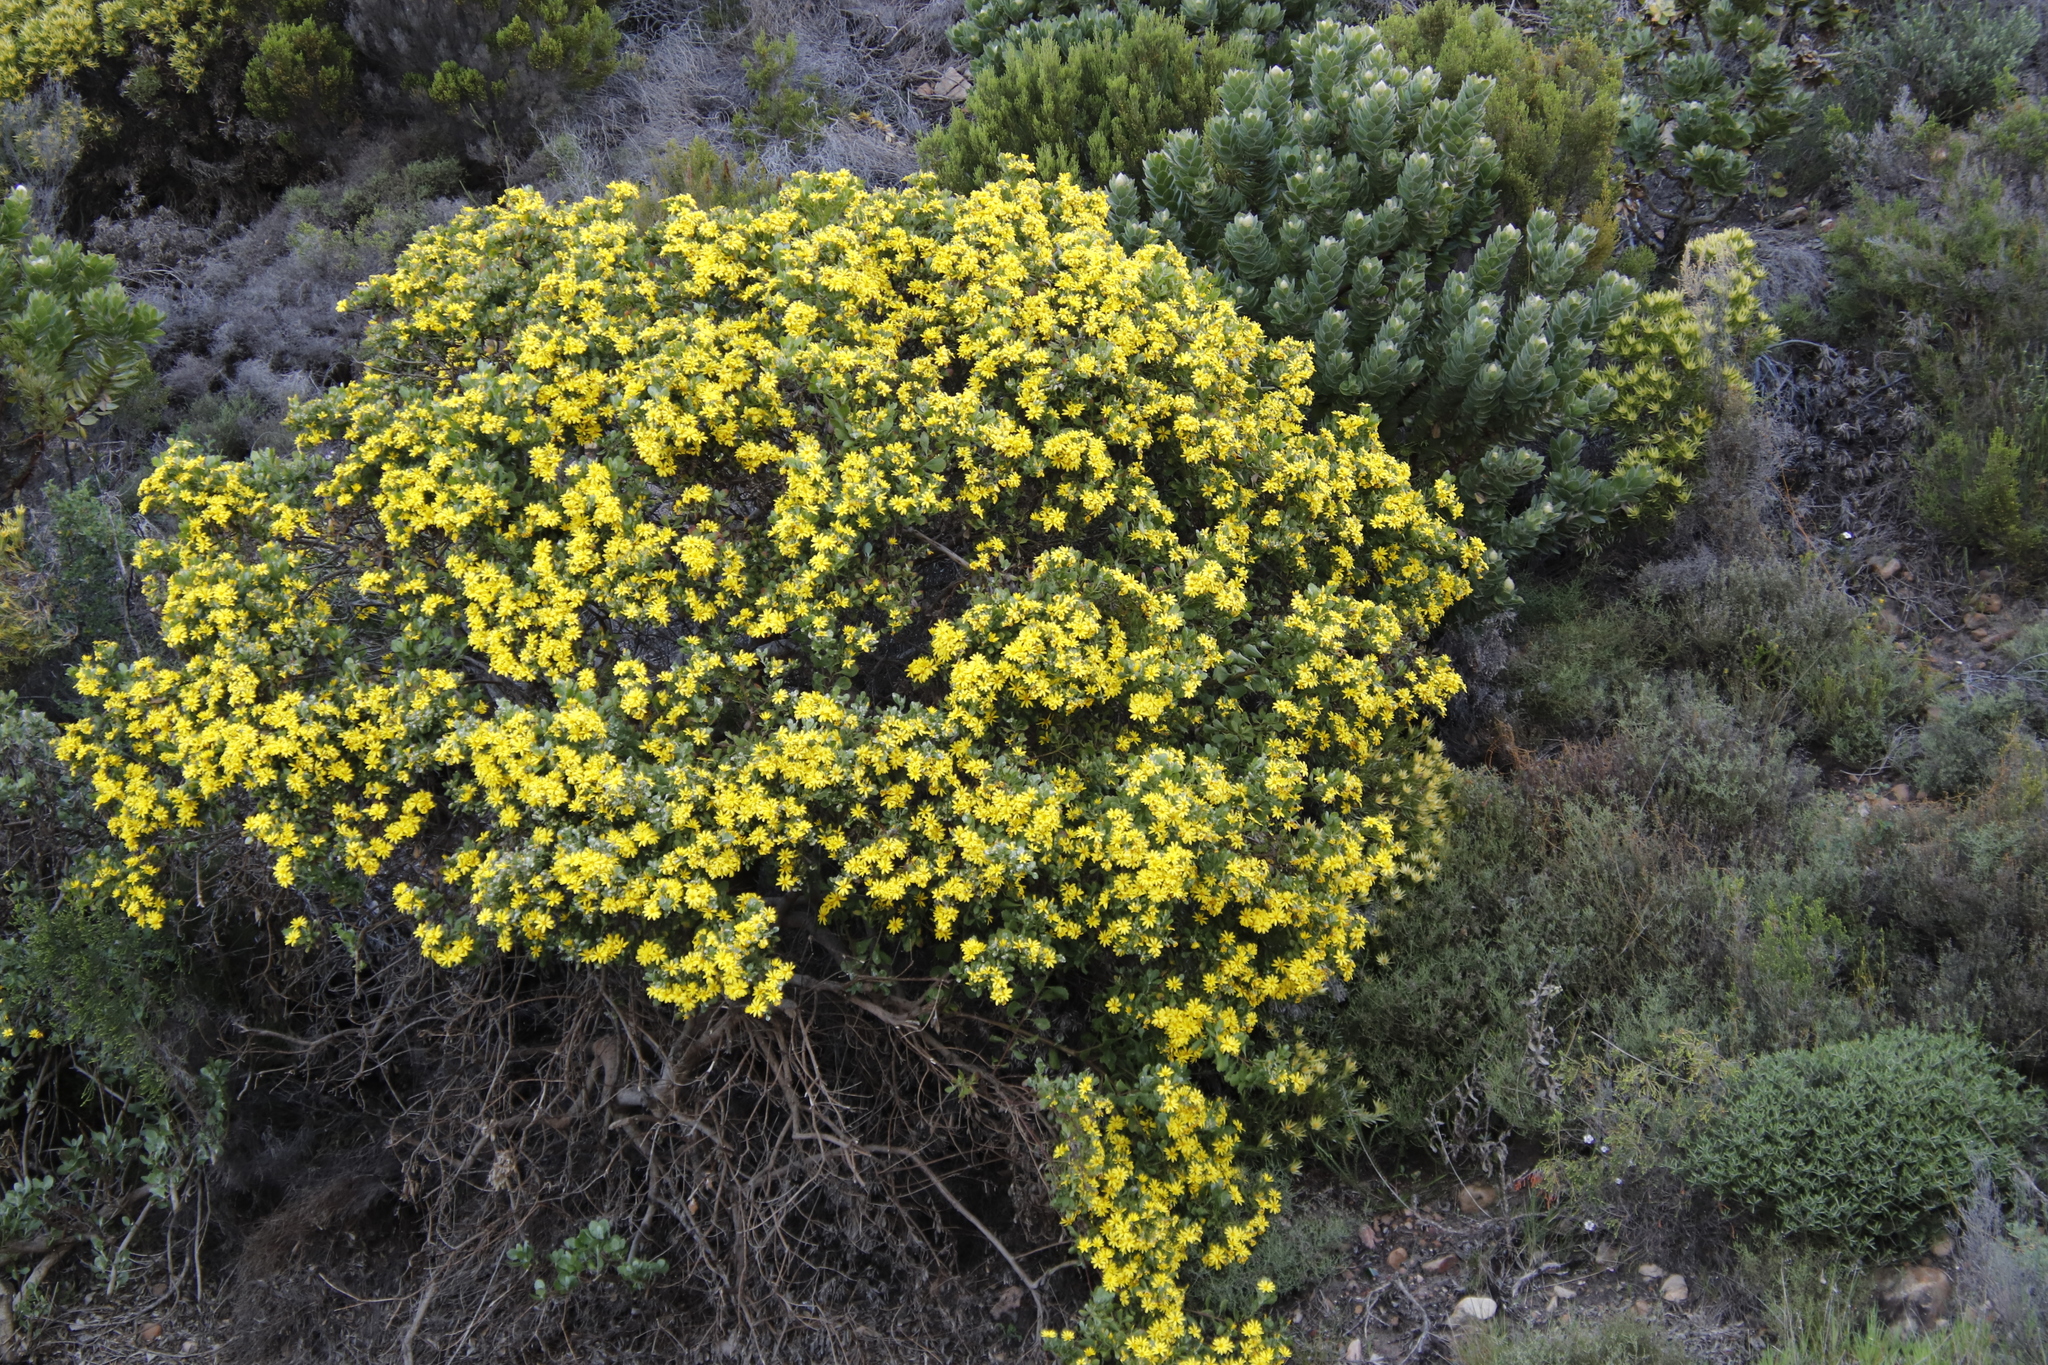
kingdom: Plantae
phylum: Tracheophyta
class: Magnoliopsida
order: Asterales
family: Asteraceae
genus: Osteospermum
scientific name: Osteospermum moniliferum
